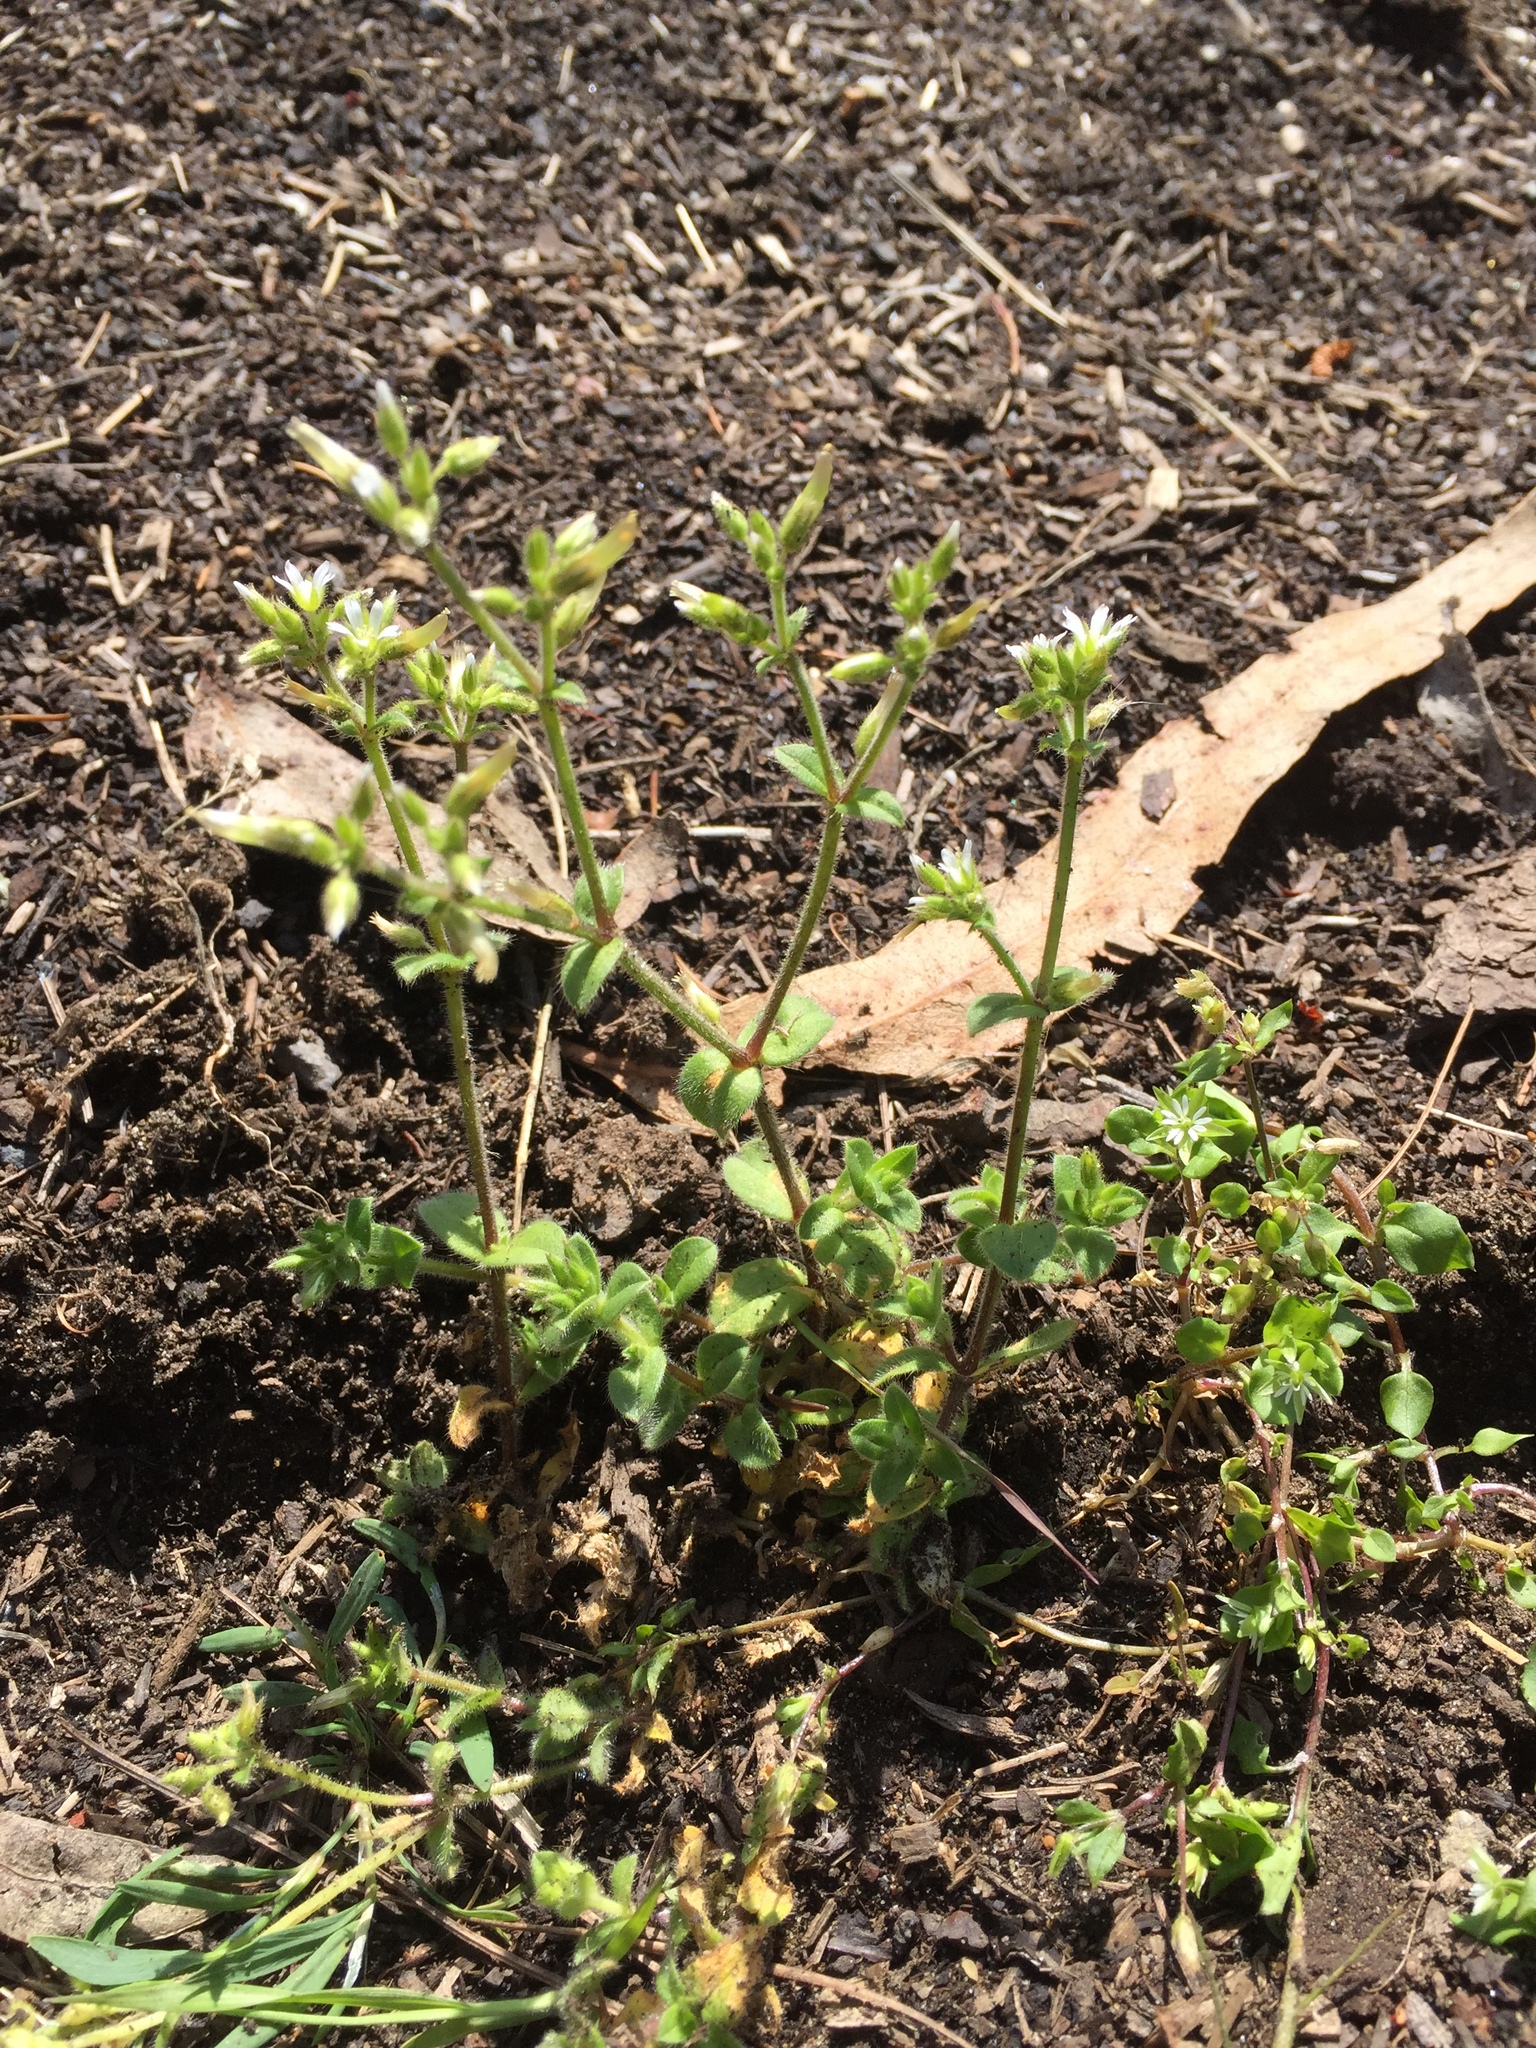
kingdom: Plantae
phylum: Tracheophyta
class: Magnoliopsida
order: Caryophyllales
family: Caryophyllaceae
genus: Cerastium
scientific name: Cerastium fontanum
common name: Common mouse-ear
